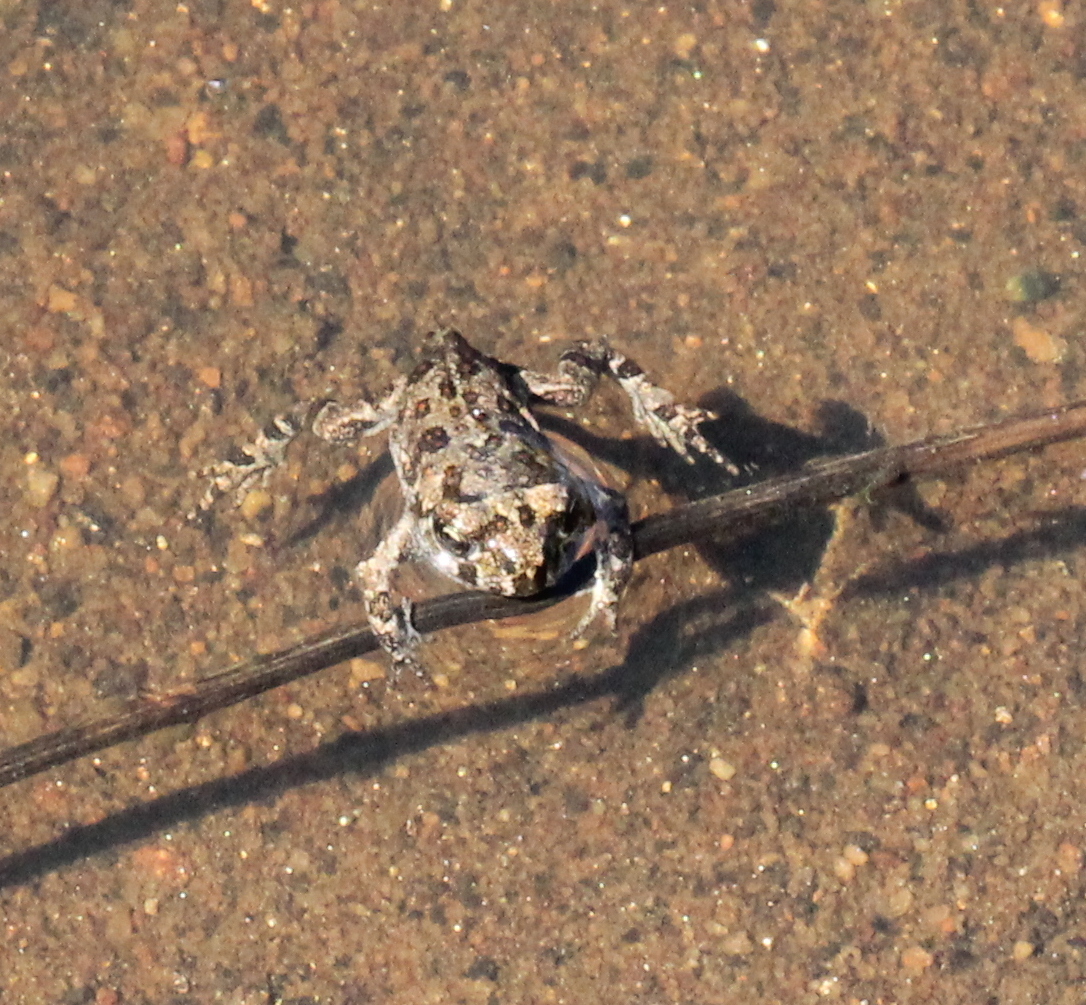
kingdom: Animalia
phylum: Chordata
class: Amphibia
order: Anura
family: Bufonidae
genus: Anaxyrus
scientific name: Anaxyrus boreas
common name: Western toad
